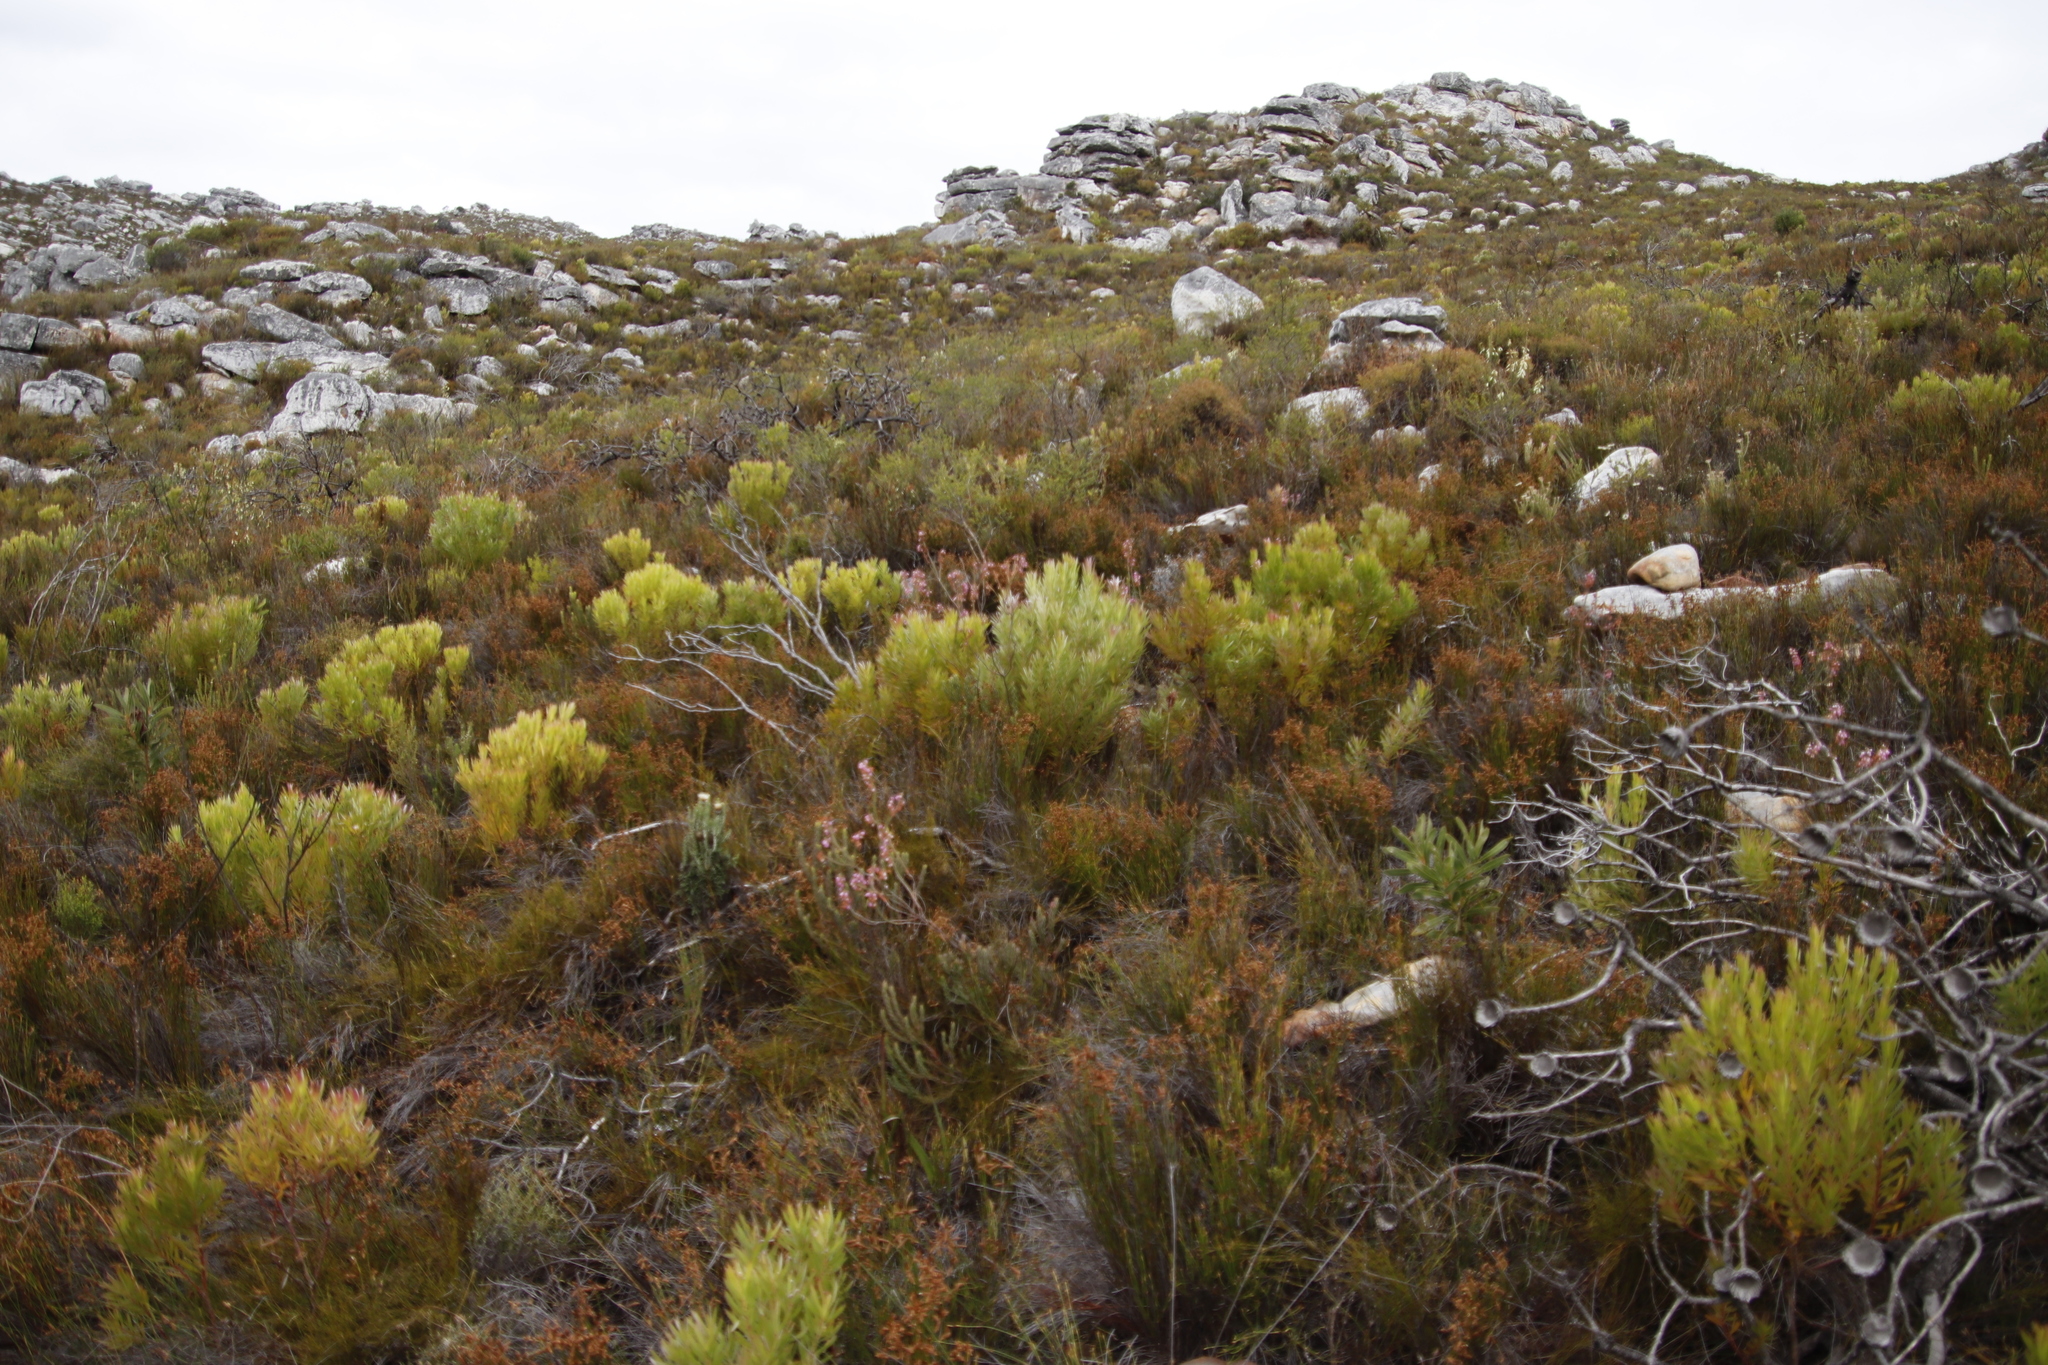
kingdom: Plantae
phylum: Tracheophyta
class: Magnoliopsida
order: Ericales
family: Ericaceae
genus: Erica
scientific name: Erica viscaria
